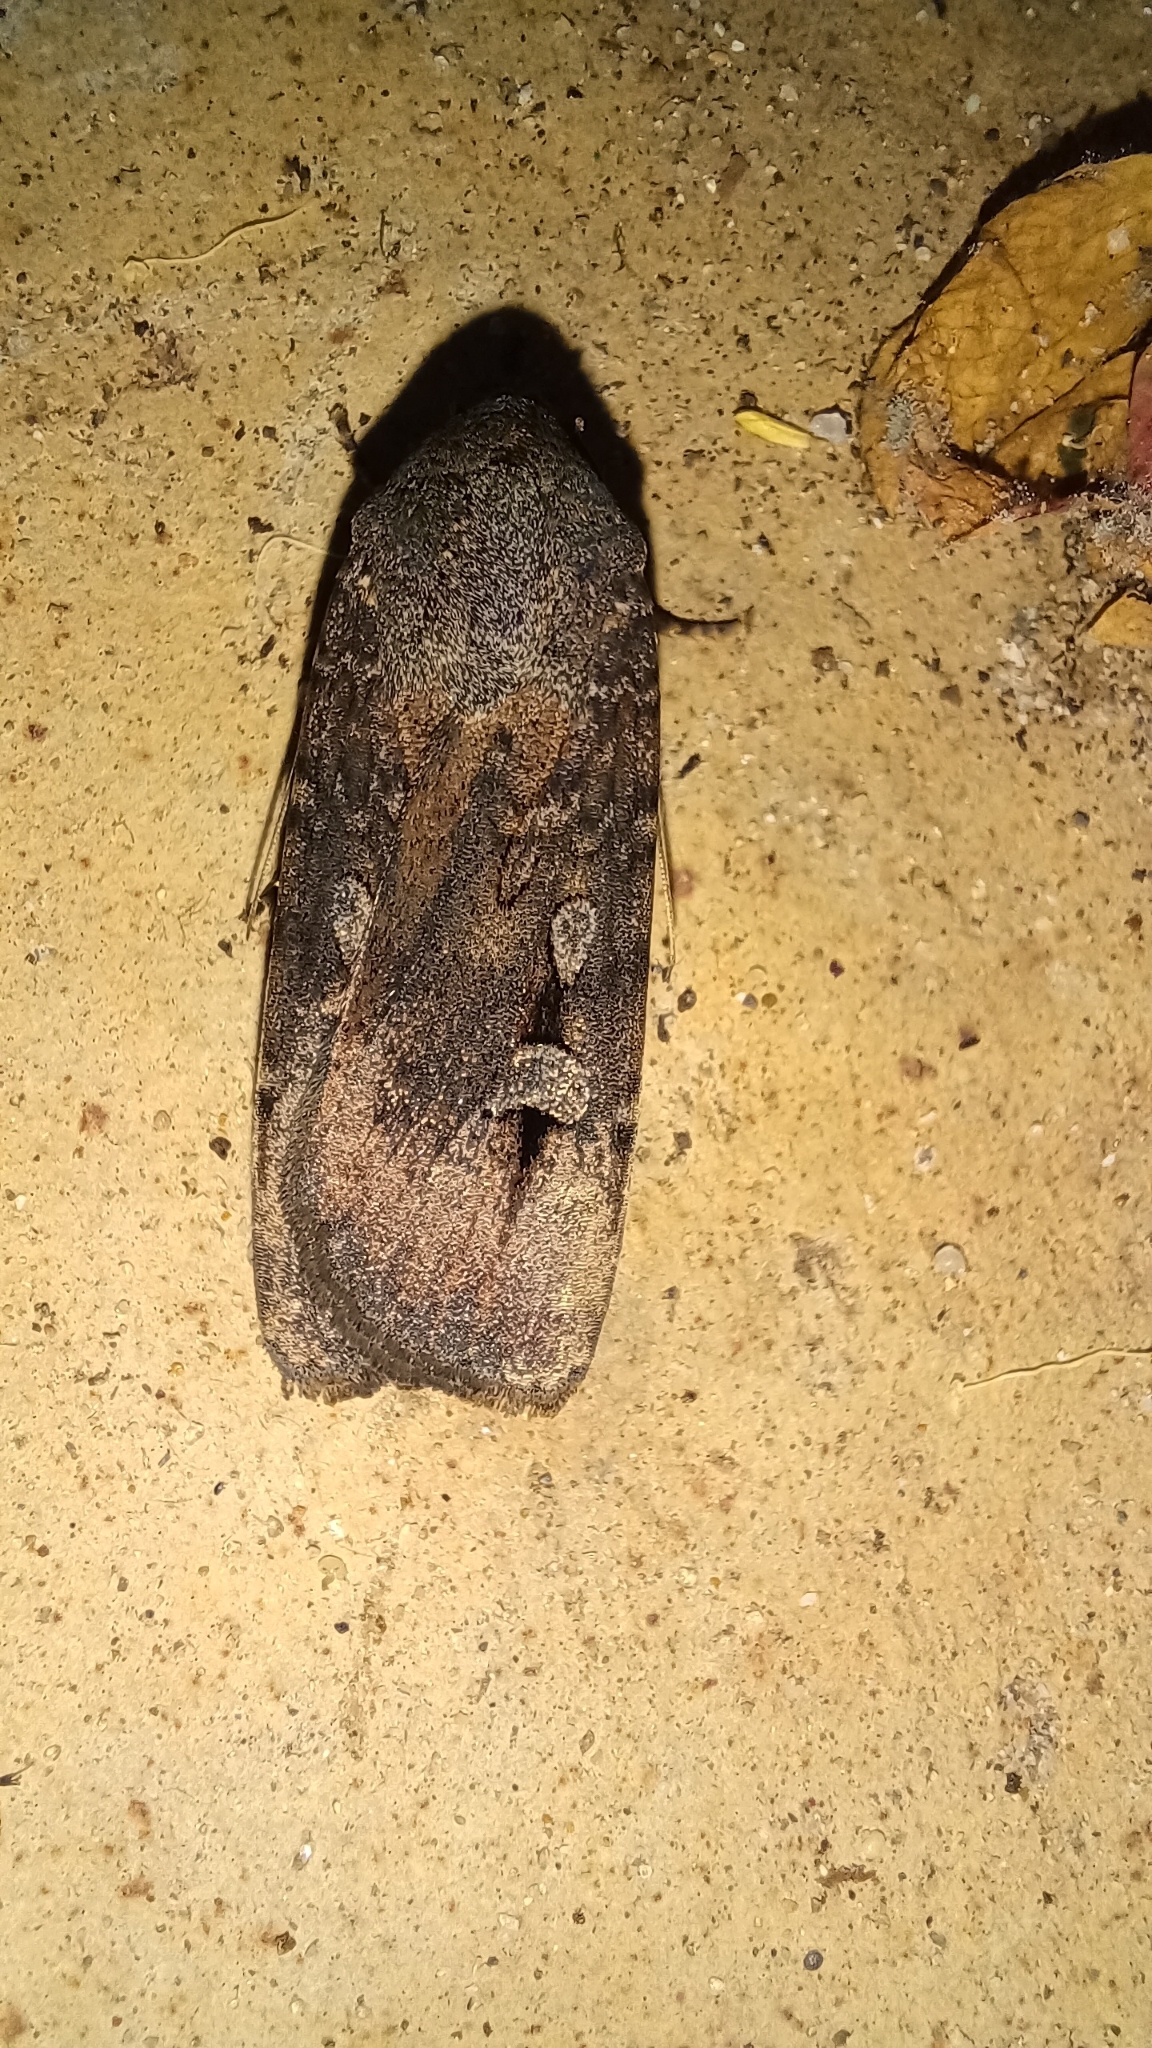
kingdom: Animalia
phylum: Arthropoda
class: Insecta
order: Lepidoptera
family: Noctuidae
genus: Agrotis
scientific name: Agrotis infusa
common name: Bogong moth
